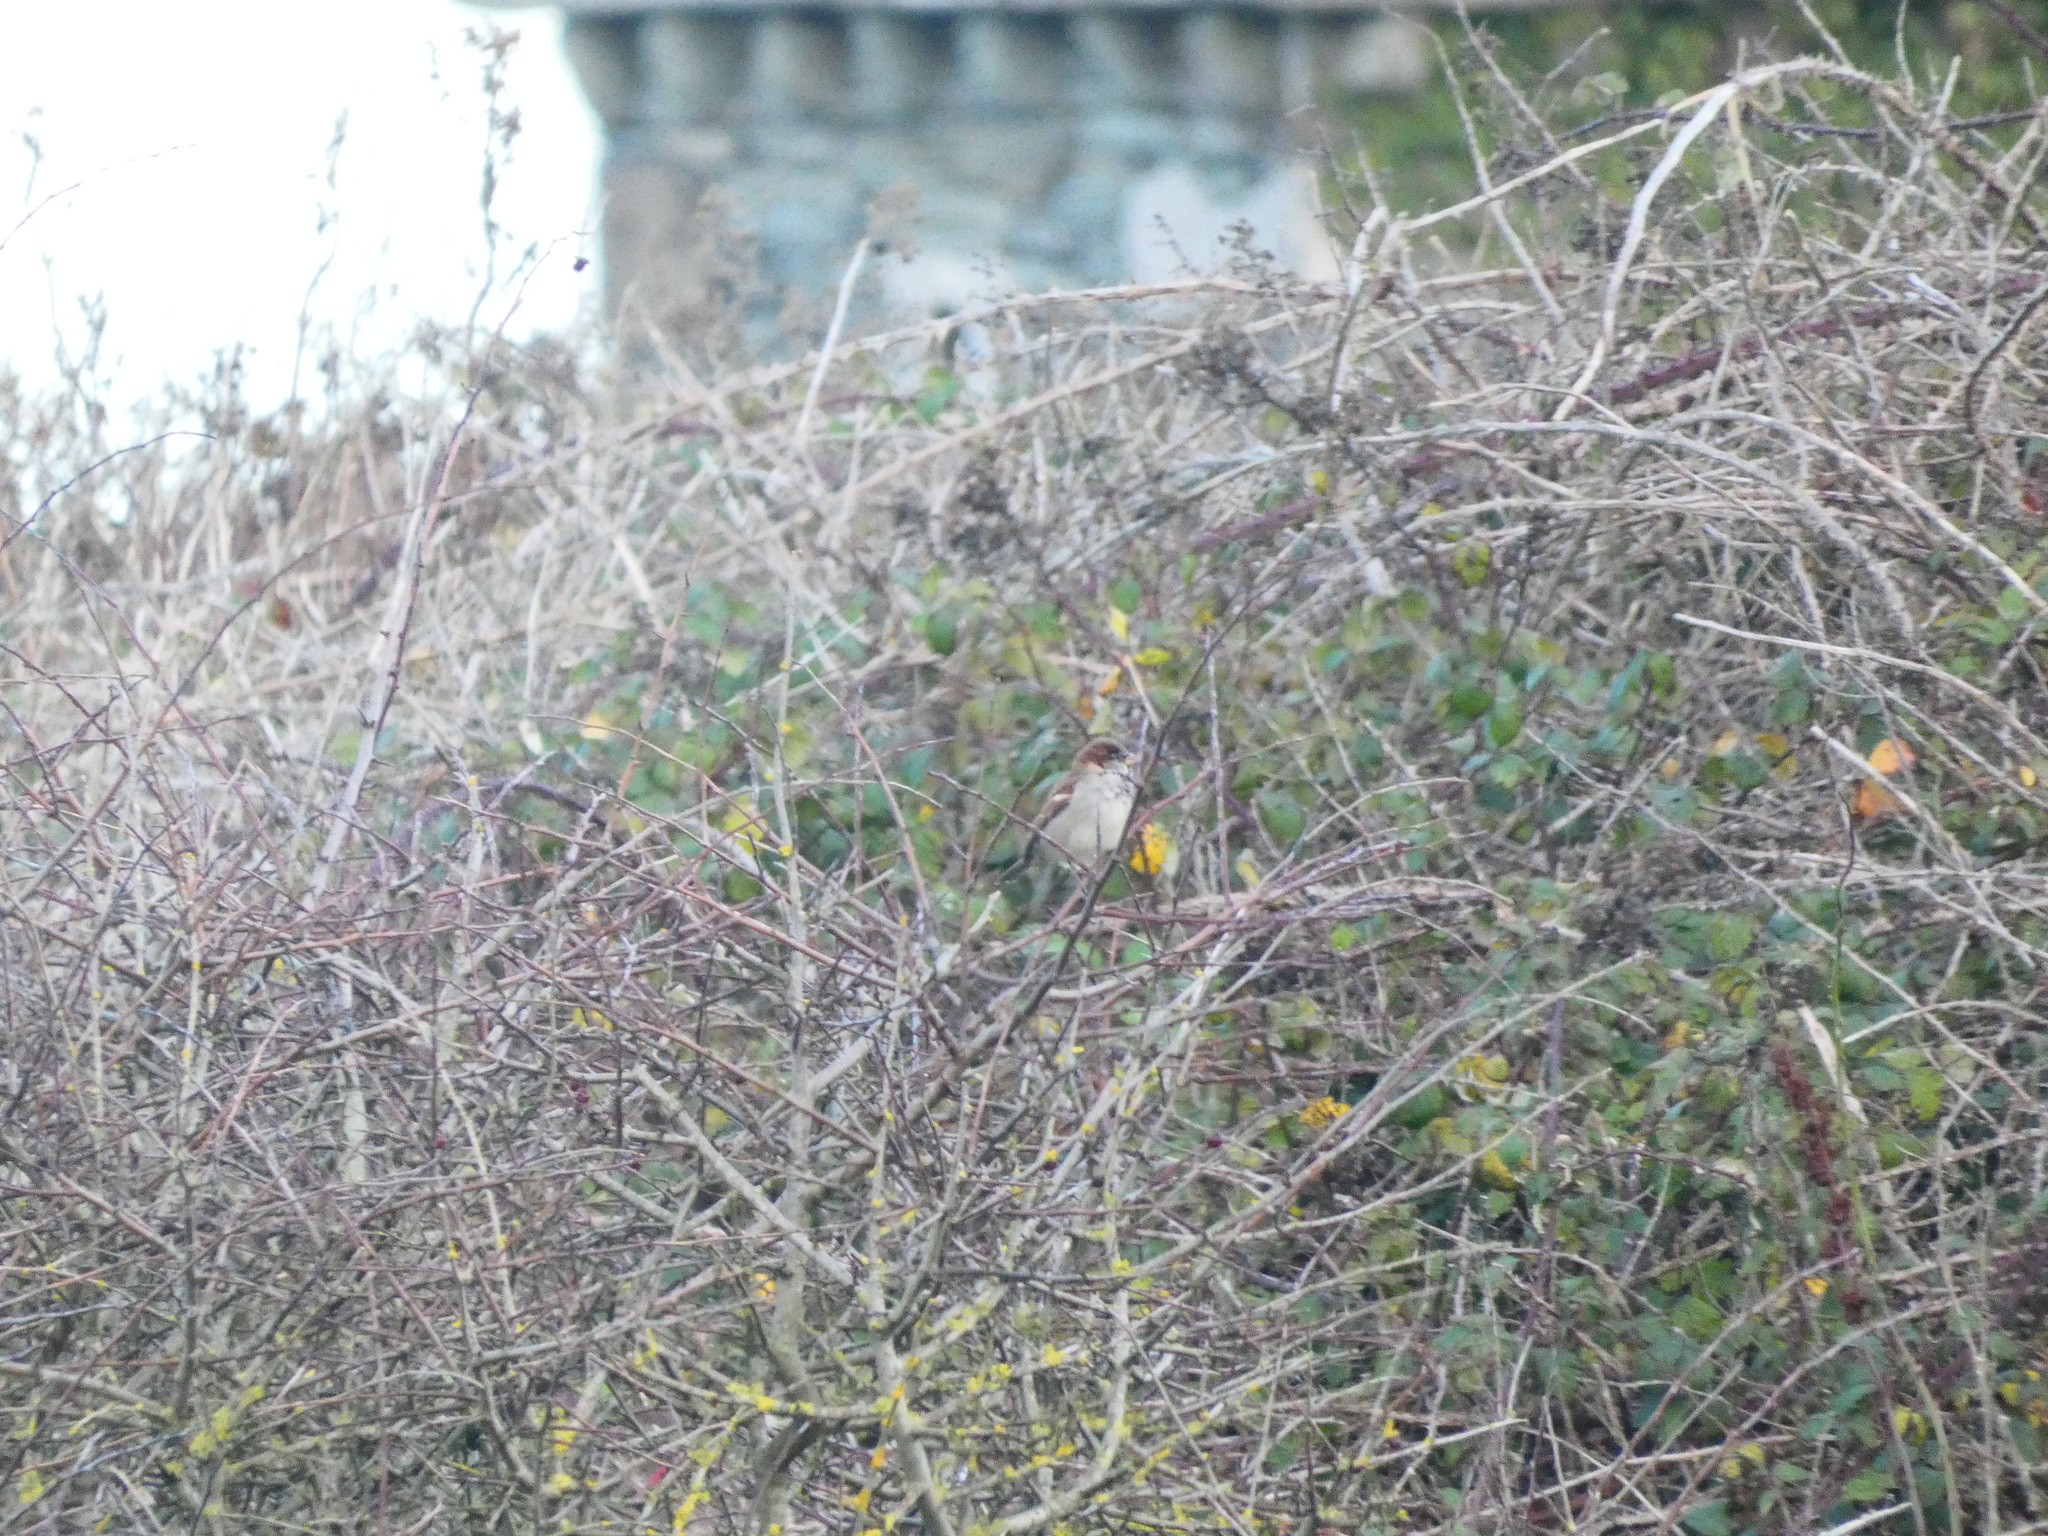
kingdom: Animalia
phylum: Chordata
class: Aves
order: Passeriformes
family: Passeridae
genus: Passer
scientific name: Passer domesticus
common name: House sparrow
